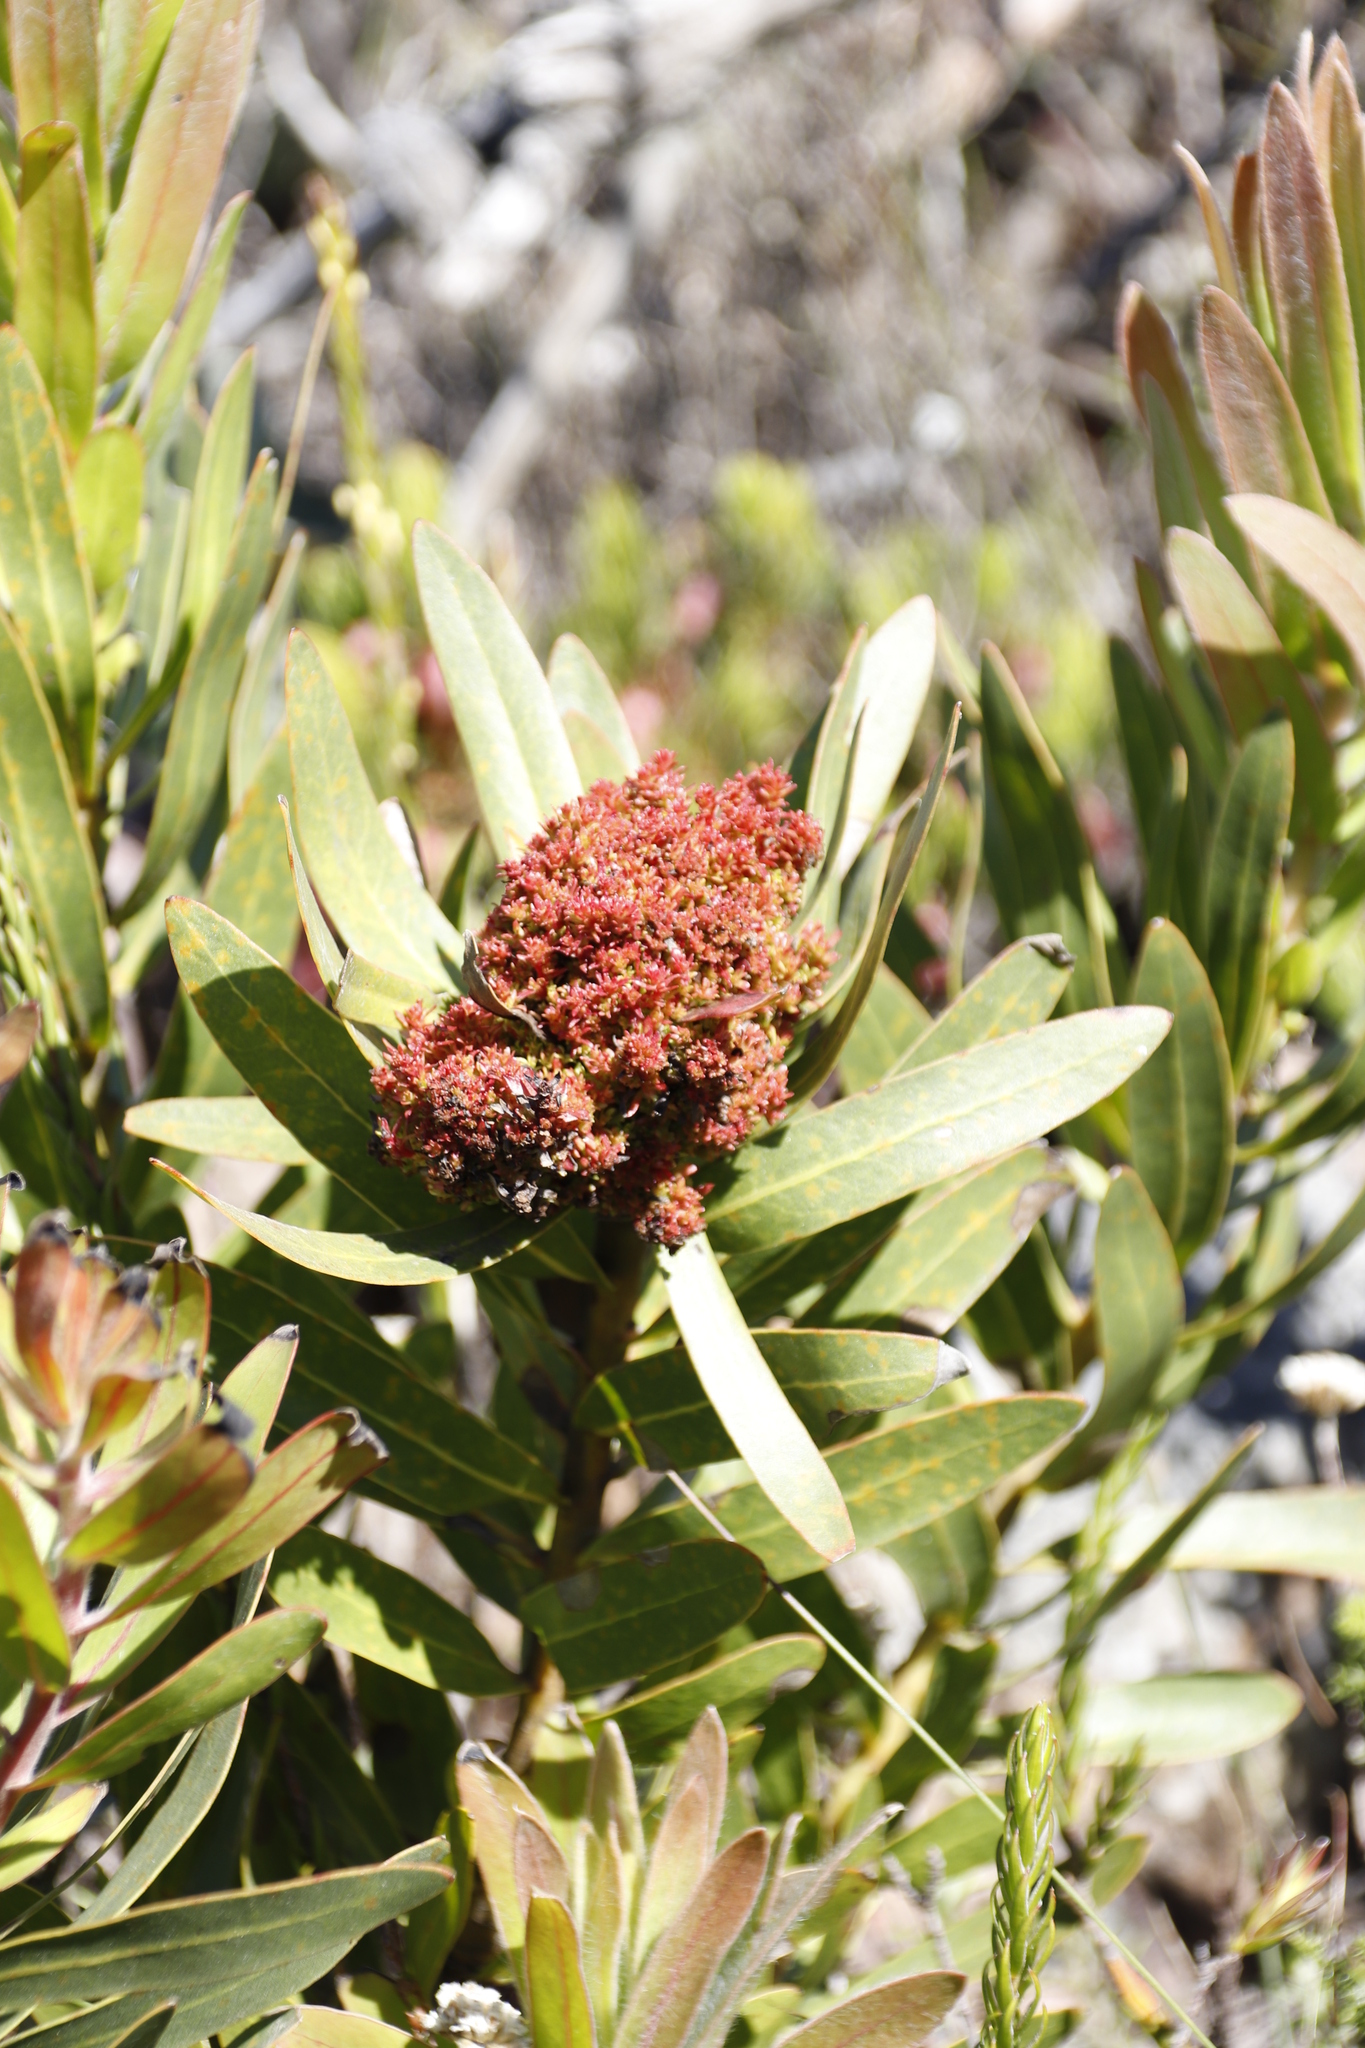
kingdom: Bacteria
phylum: Firmicutes
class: Bacilli
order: Acholeplasmatales
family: Acholeplasmataceae
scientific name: Acholeplasmataceae
